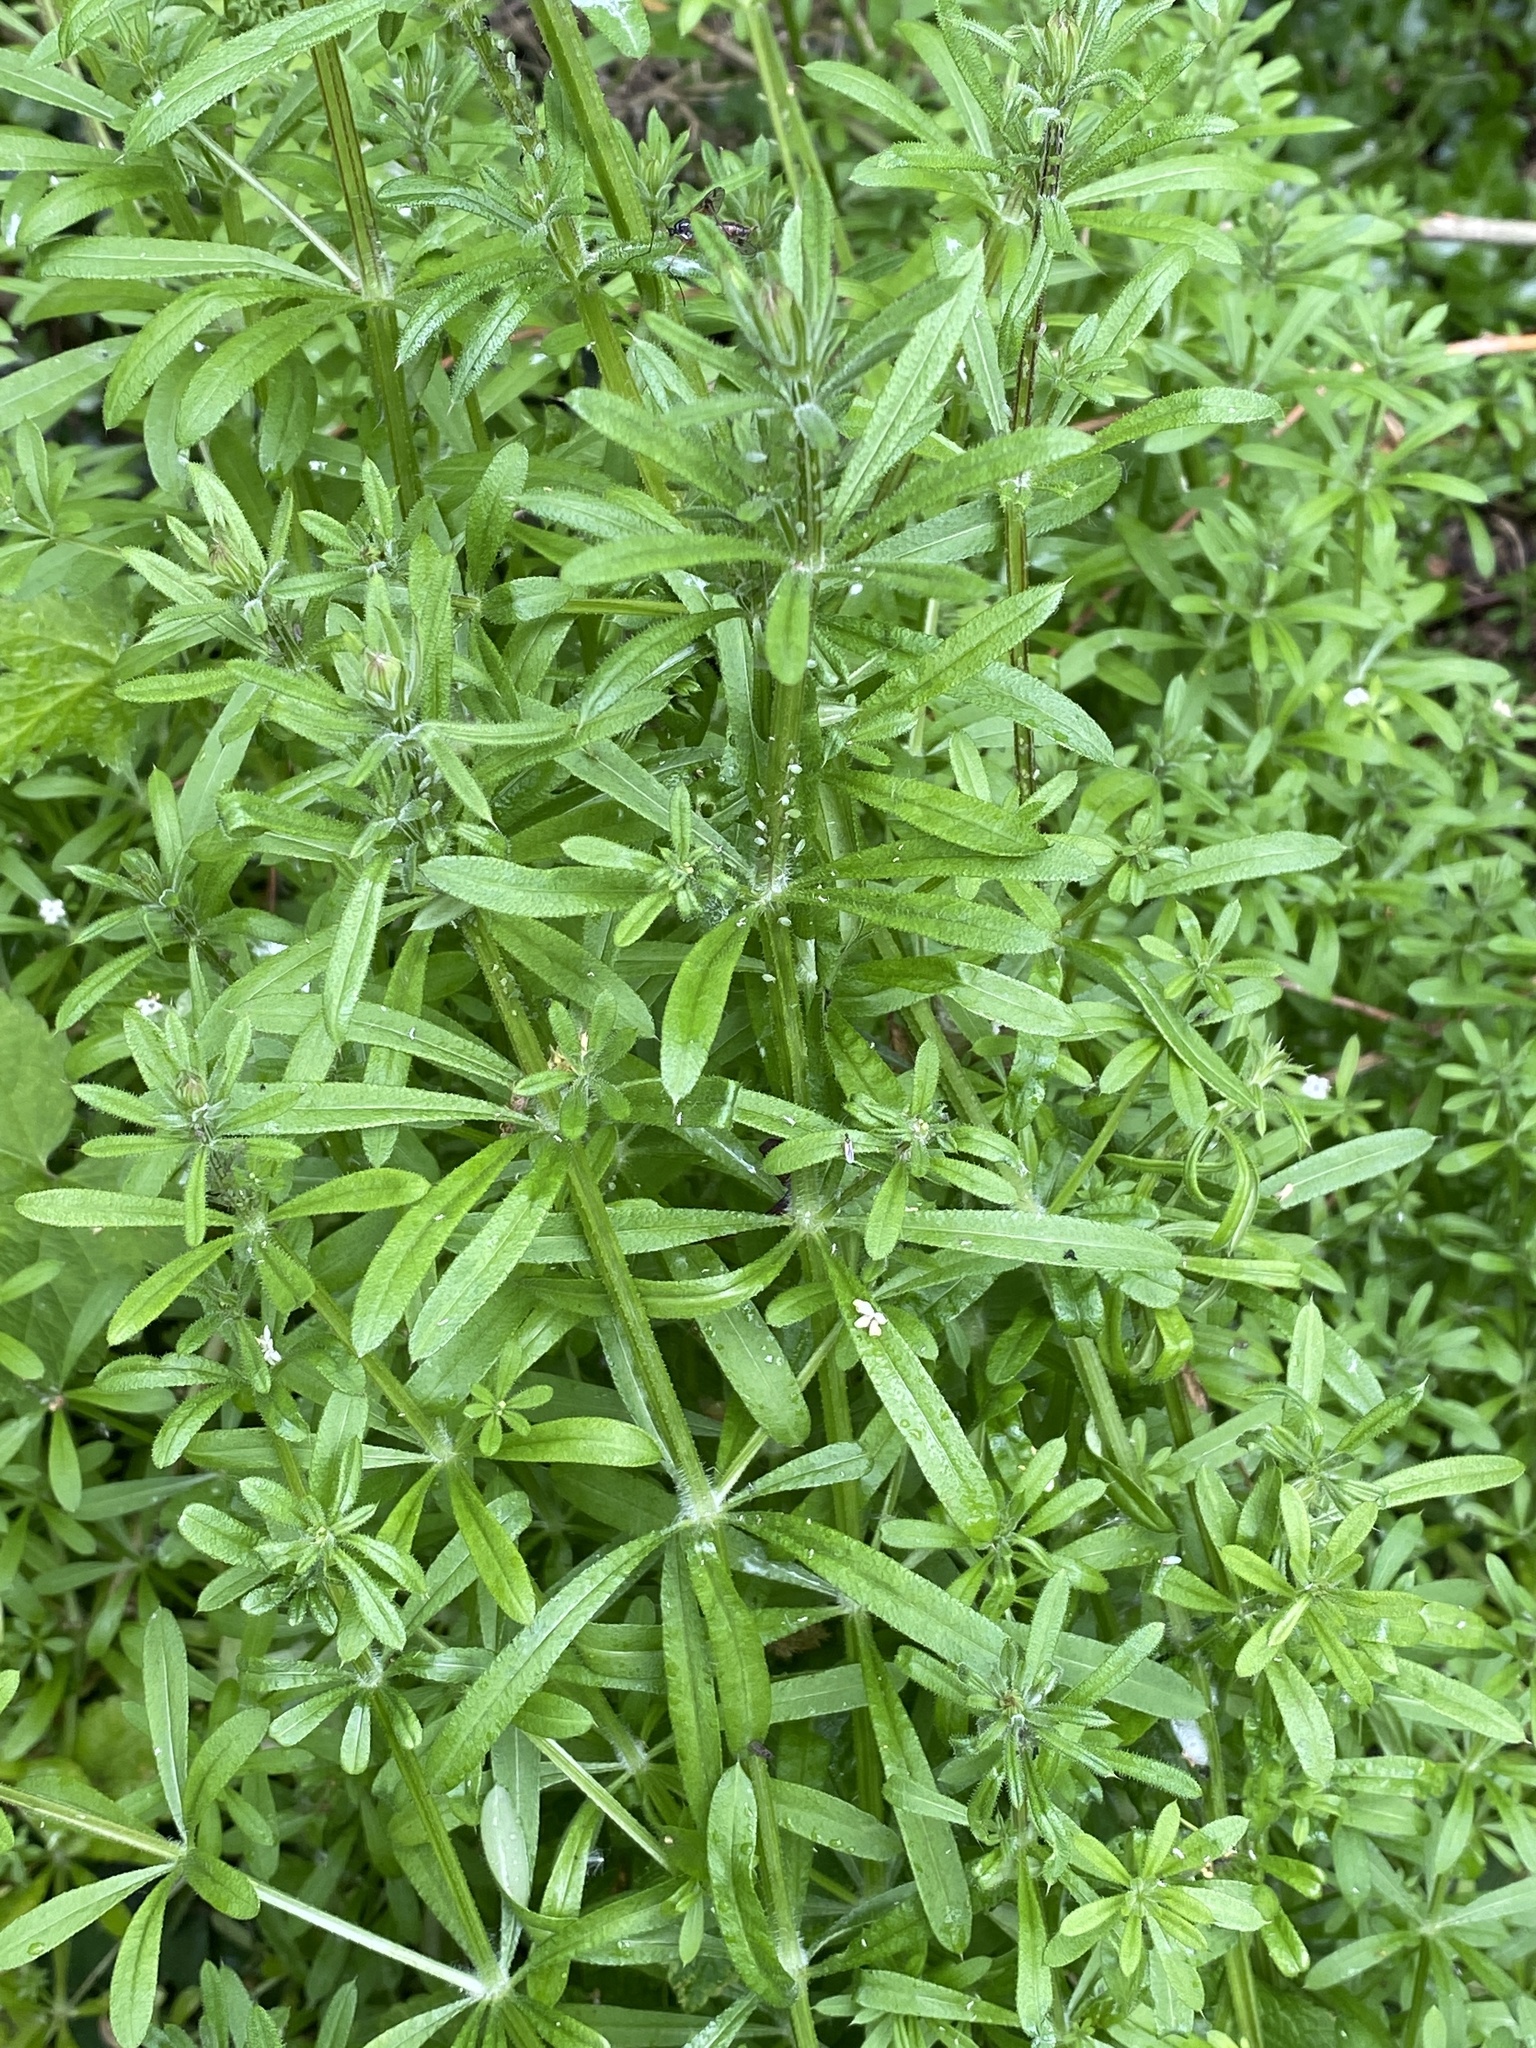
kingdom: Plantae
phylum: Tracheophyta
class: Magnoliopsida
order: Gentianales
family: Rubiaceae
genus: Galium
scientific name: Galium aparine
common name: Cleavers
